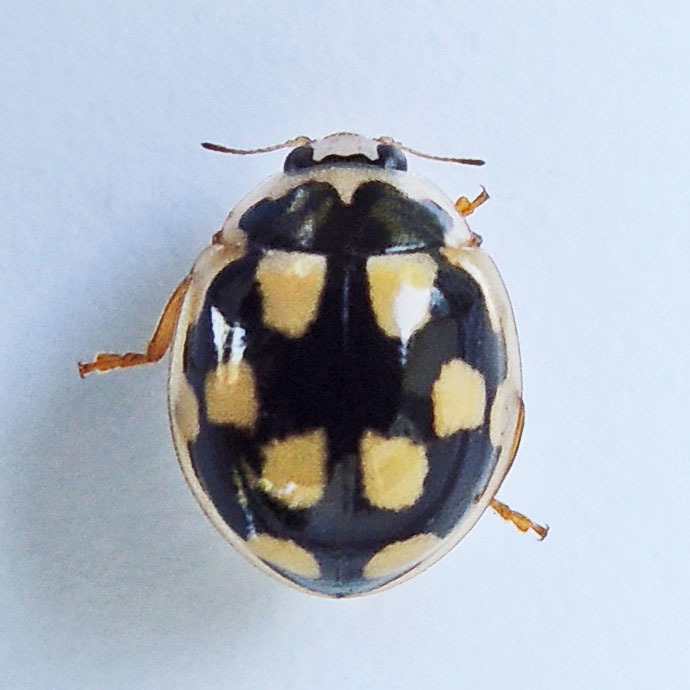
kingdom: Animalia
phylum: Arthropoda
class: Insecta
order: Coleoptera
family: Coccinellidae
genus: Propylaea
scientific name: Propylaea quatuordecimpunctata
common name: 14-spotted ladybird beetle
